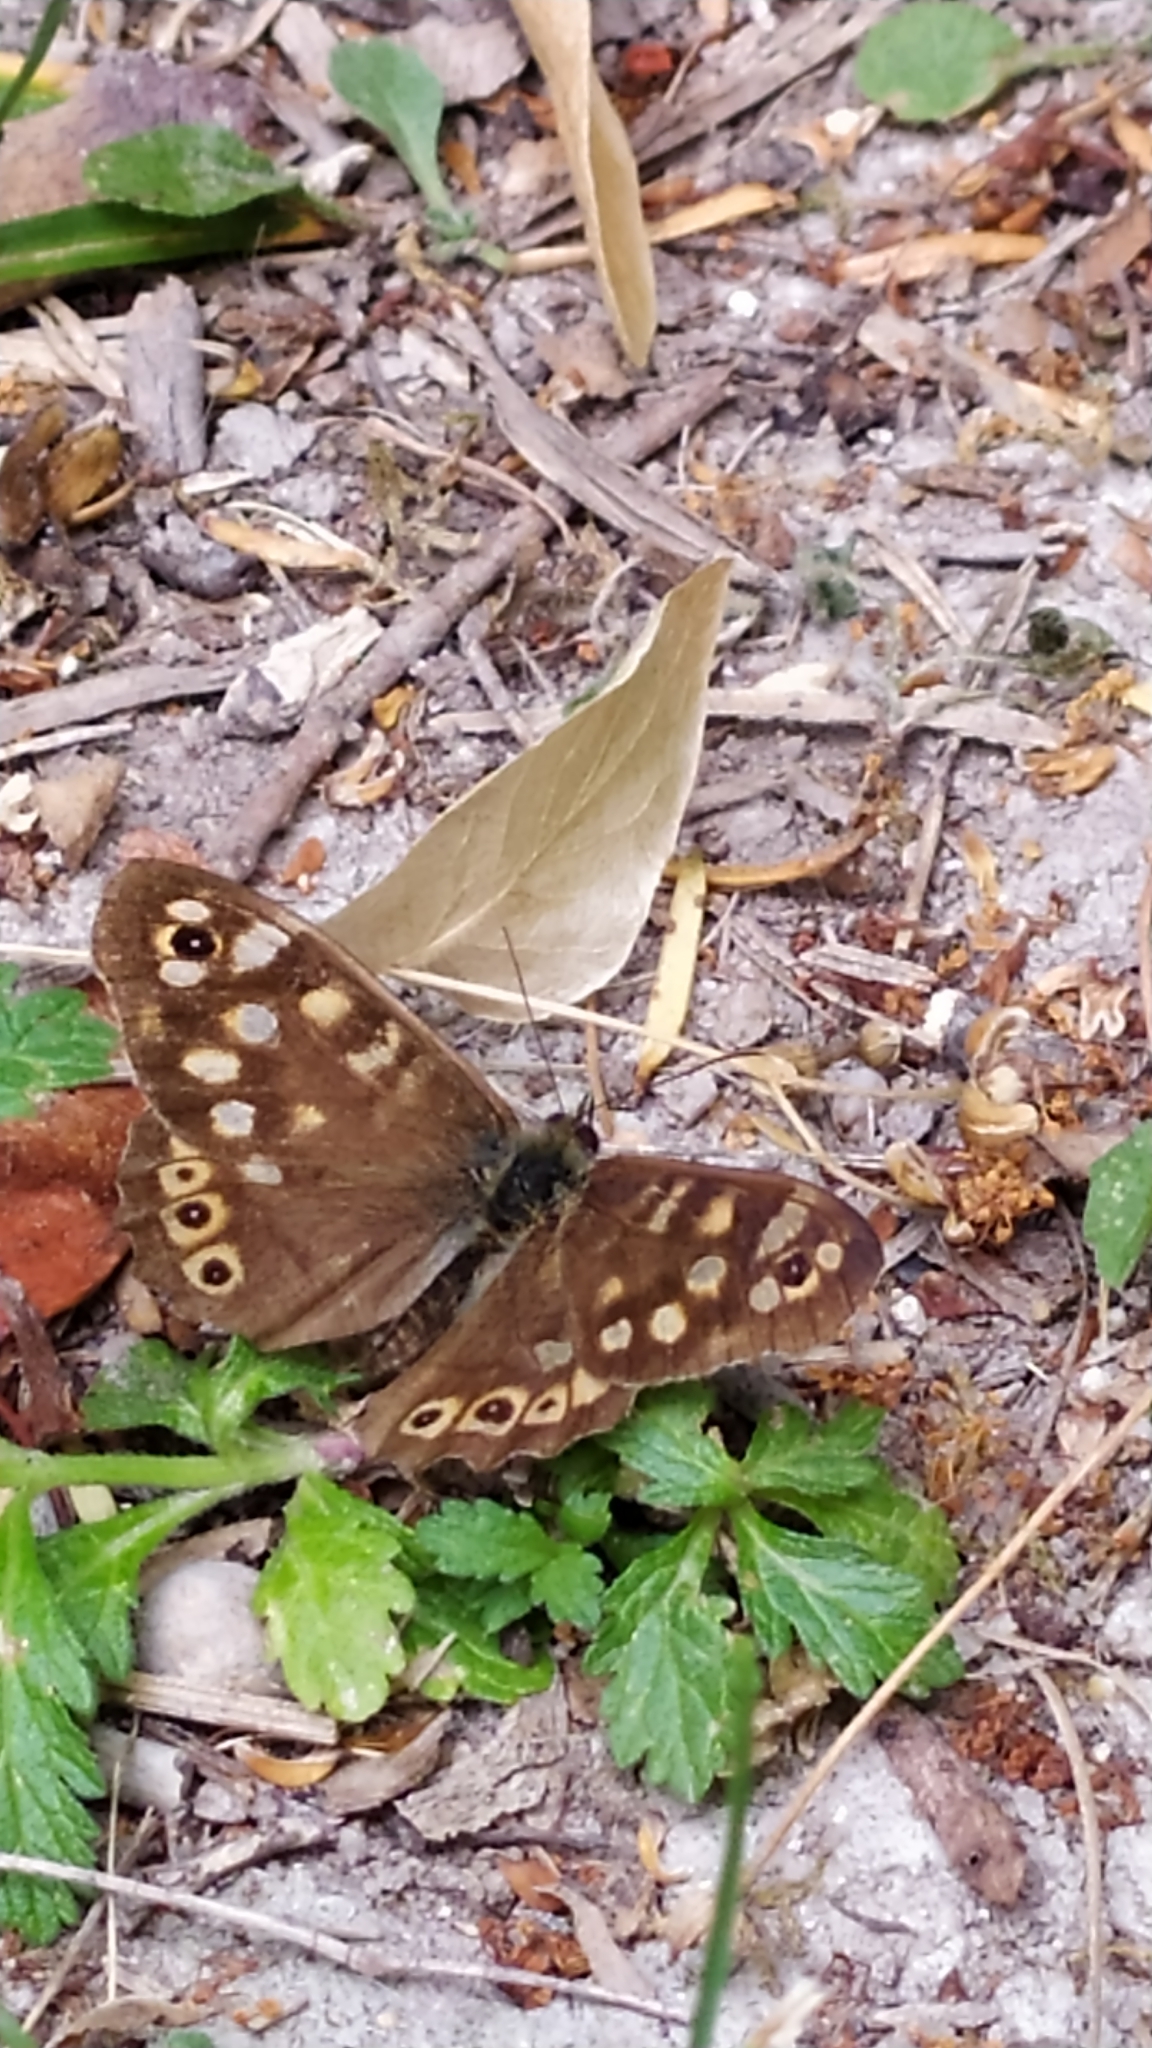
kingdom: Animalia
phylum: Arthropoda
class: Insecta
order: Lepidoptera
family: Nymphalidae
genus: Pararge
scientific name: Pararge aegeria
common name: Speckled wood
